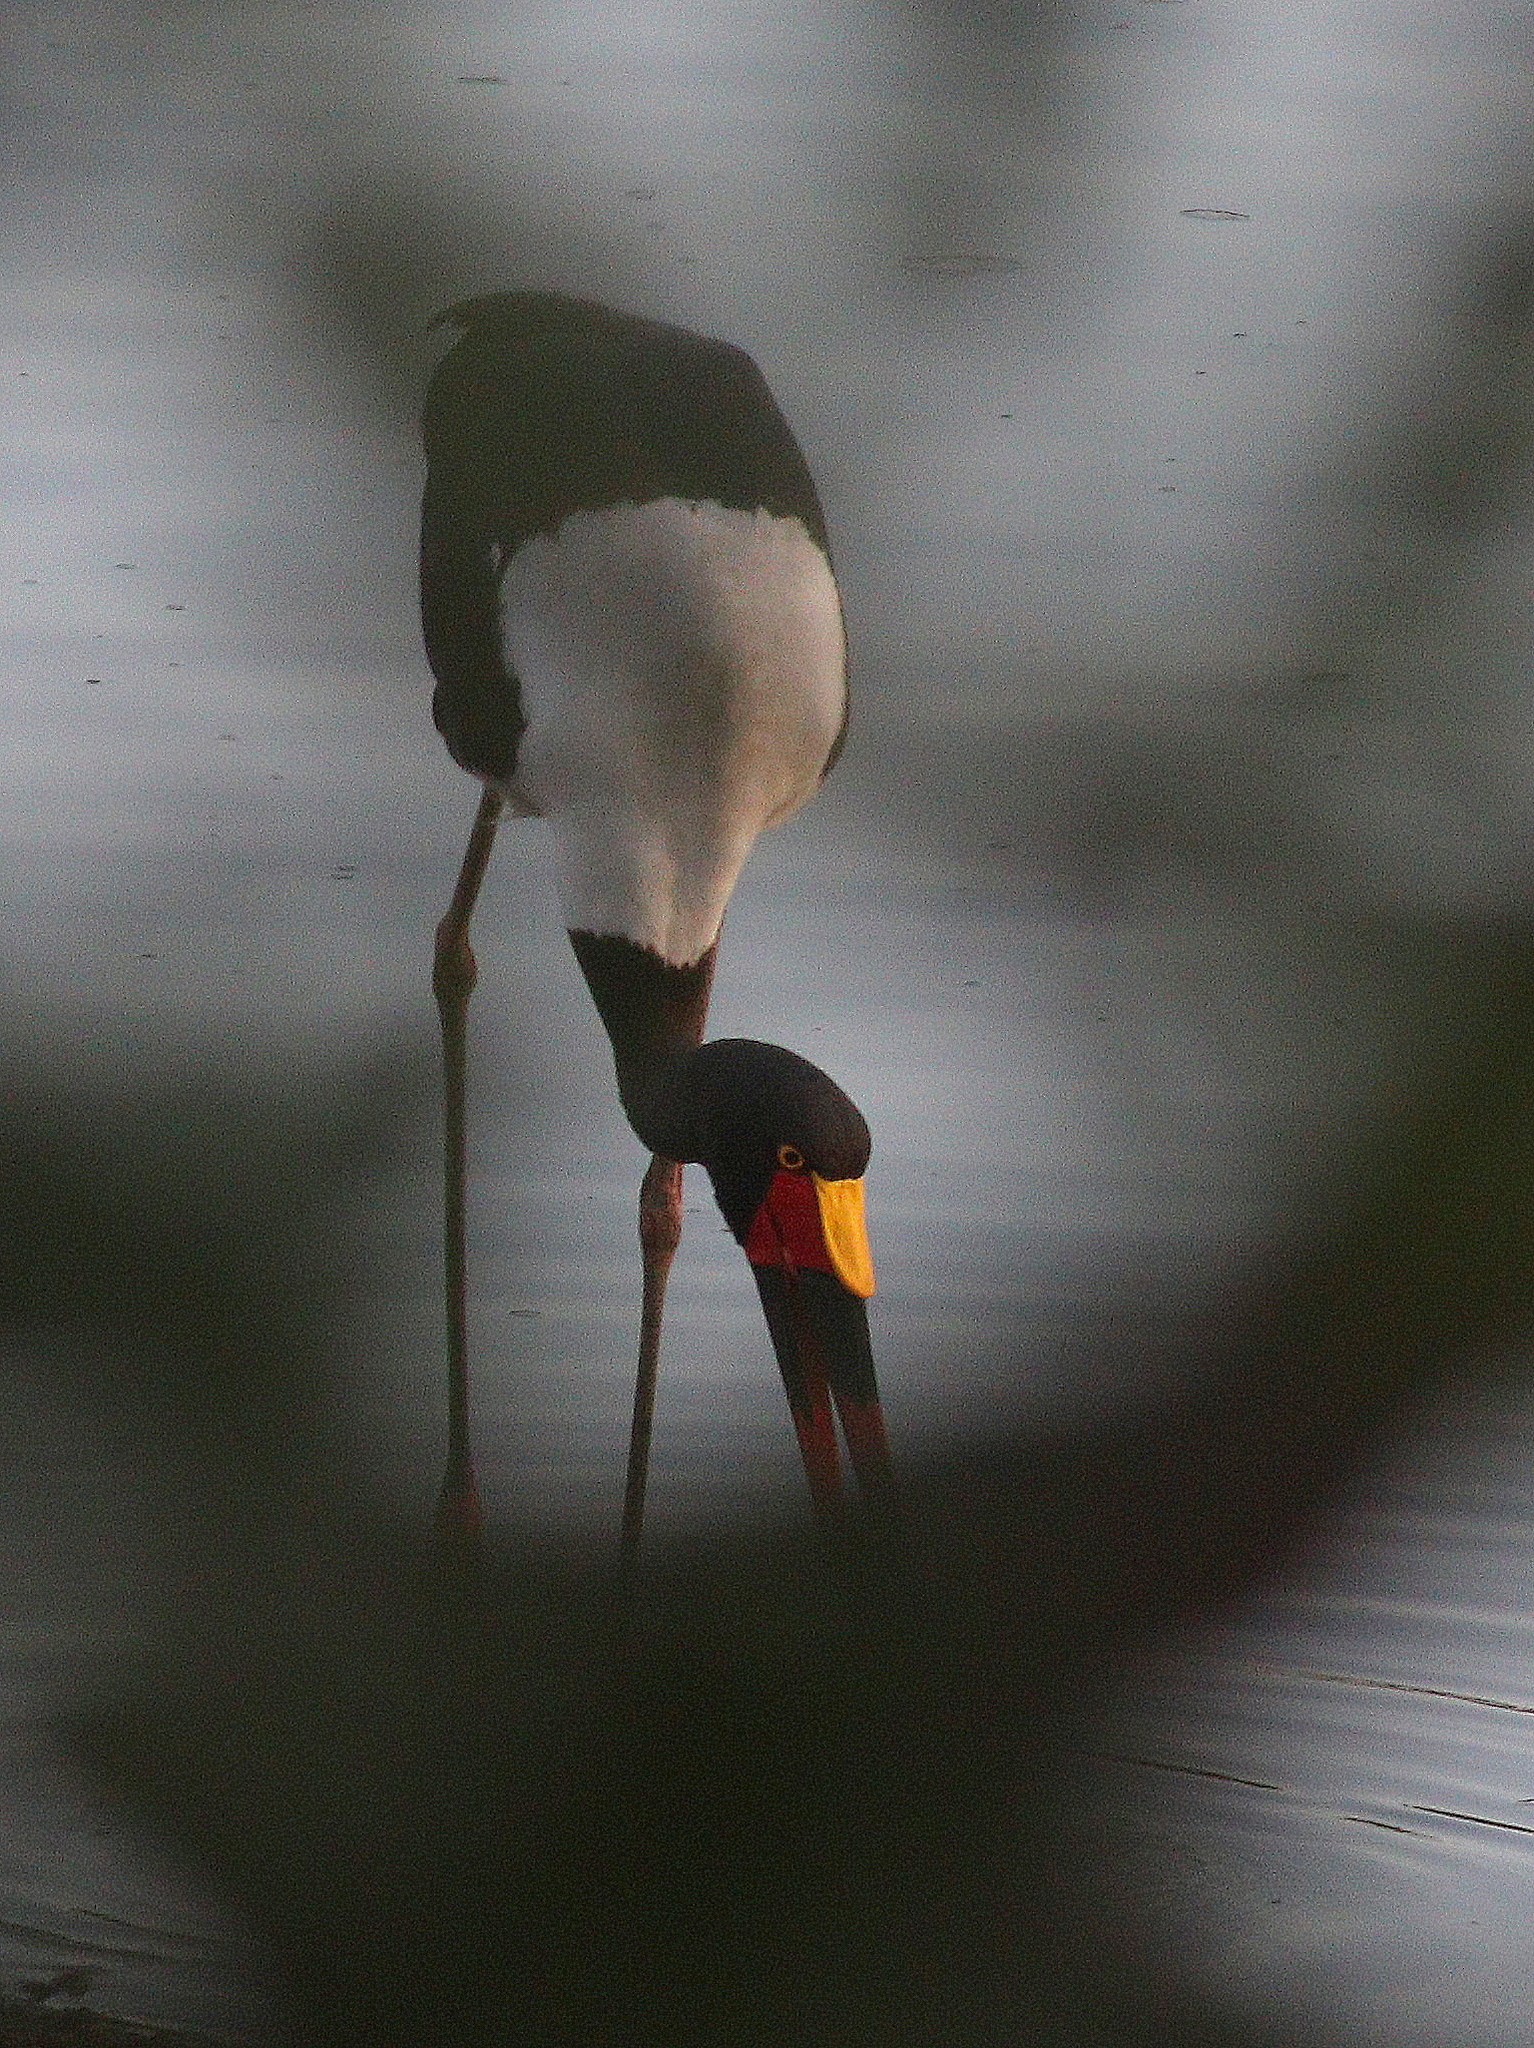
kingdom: Animalia
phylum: Chordata
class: Aves
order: Ciconiiformes
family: Ciconiidae
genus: Ephippiorhynchus
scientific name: Ephippiorhynchus senegalensis
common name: Saddle-billed stork
